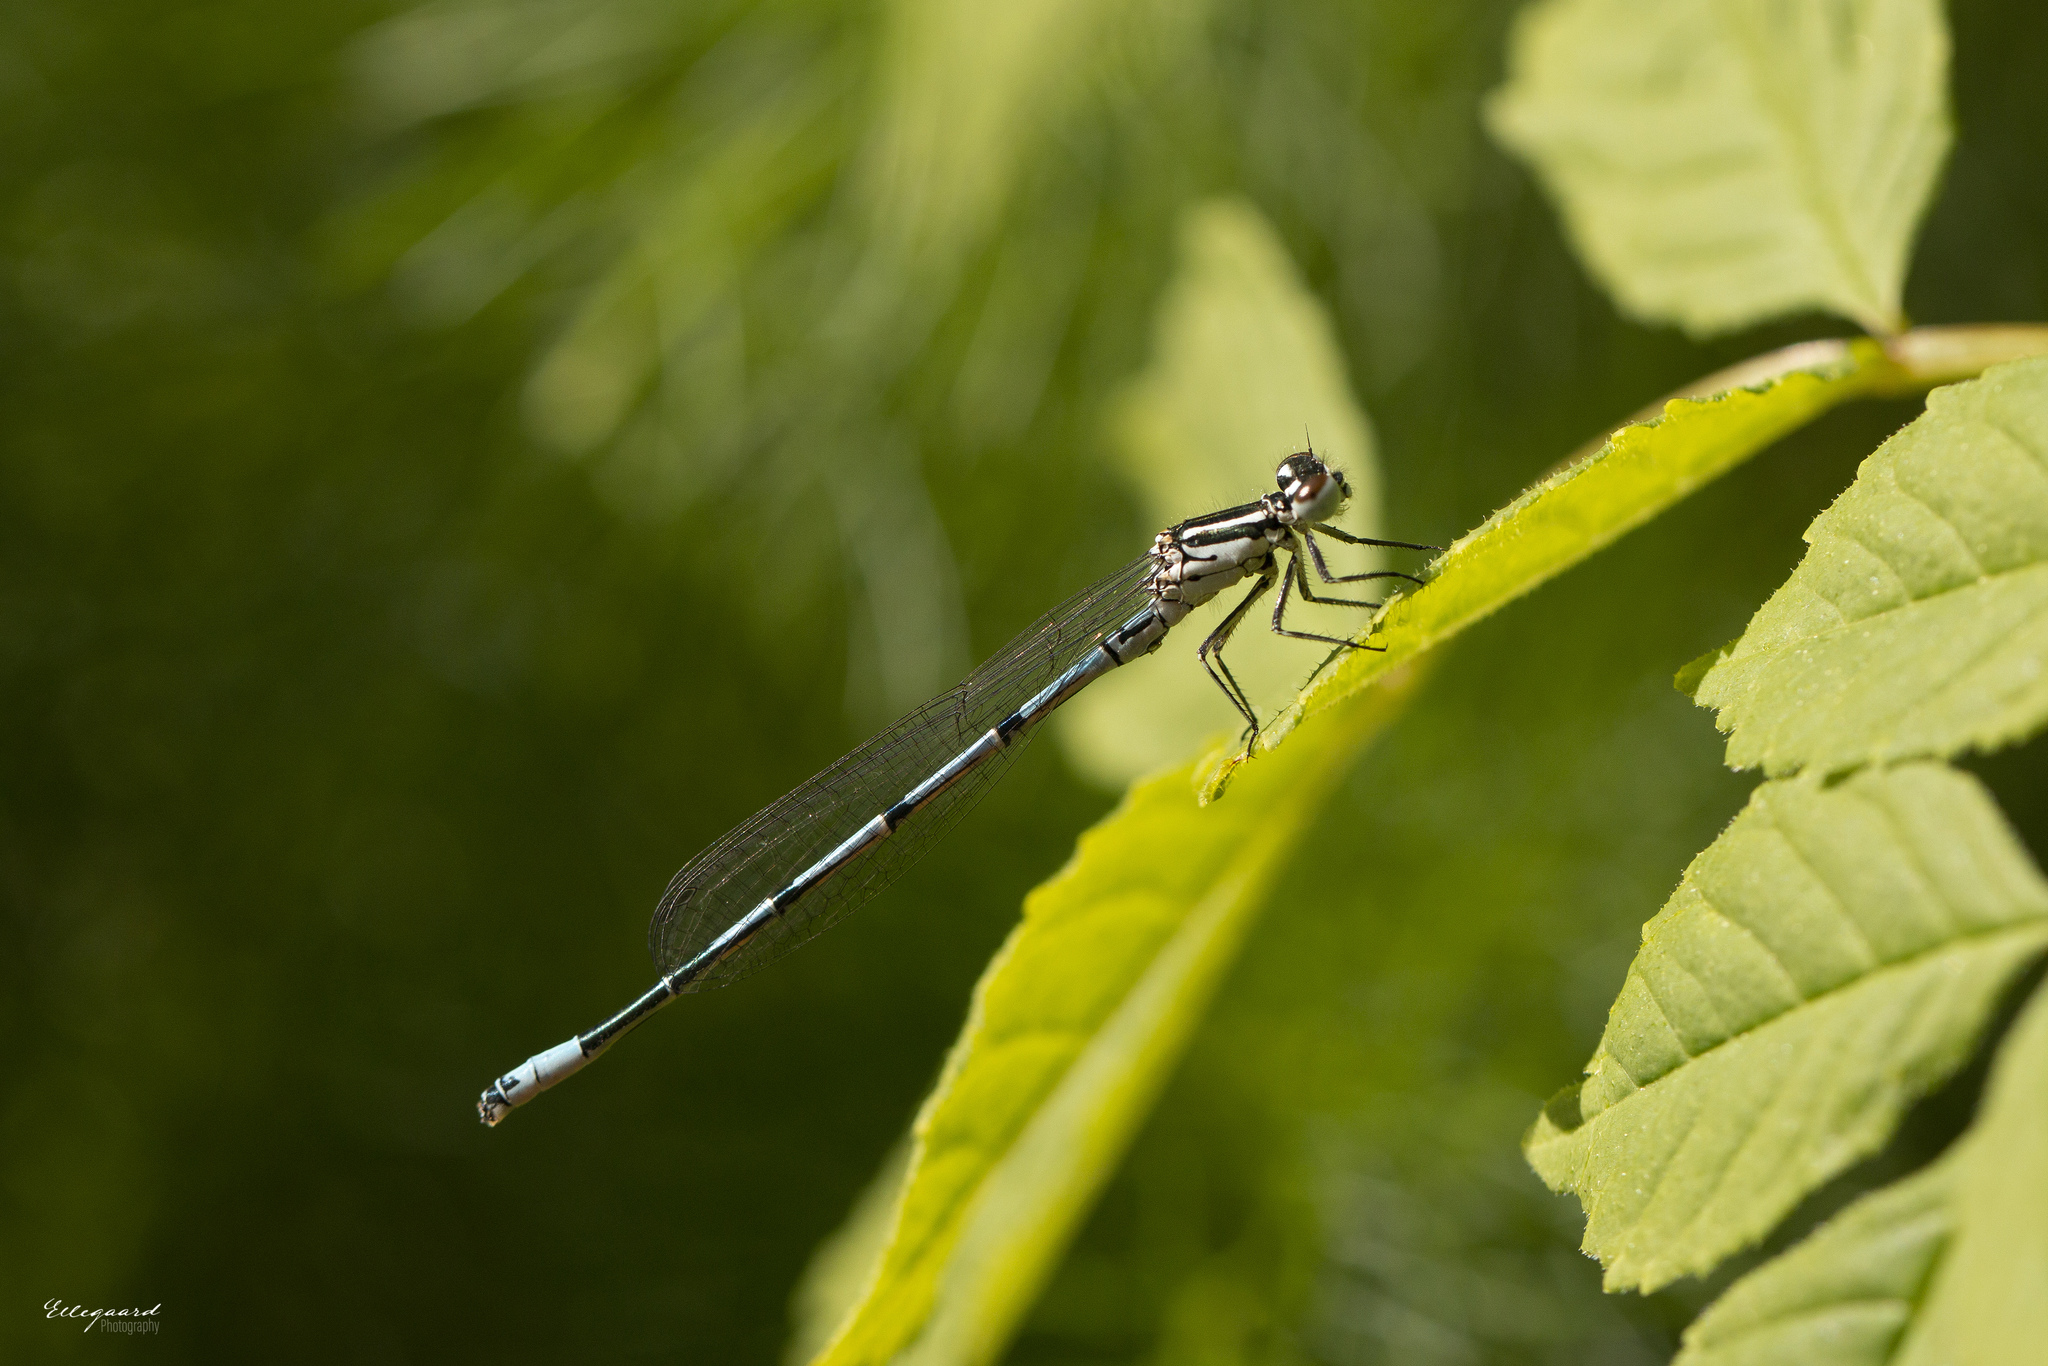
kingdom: Animalia
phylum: Arthropoda
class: Insecta
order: Odonata
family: Coenagrionidae
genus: Coenagrion
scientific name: Coenagrion puella
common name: Azure damselfly
